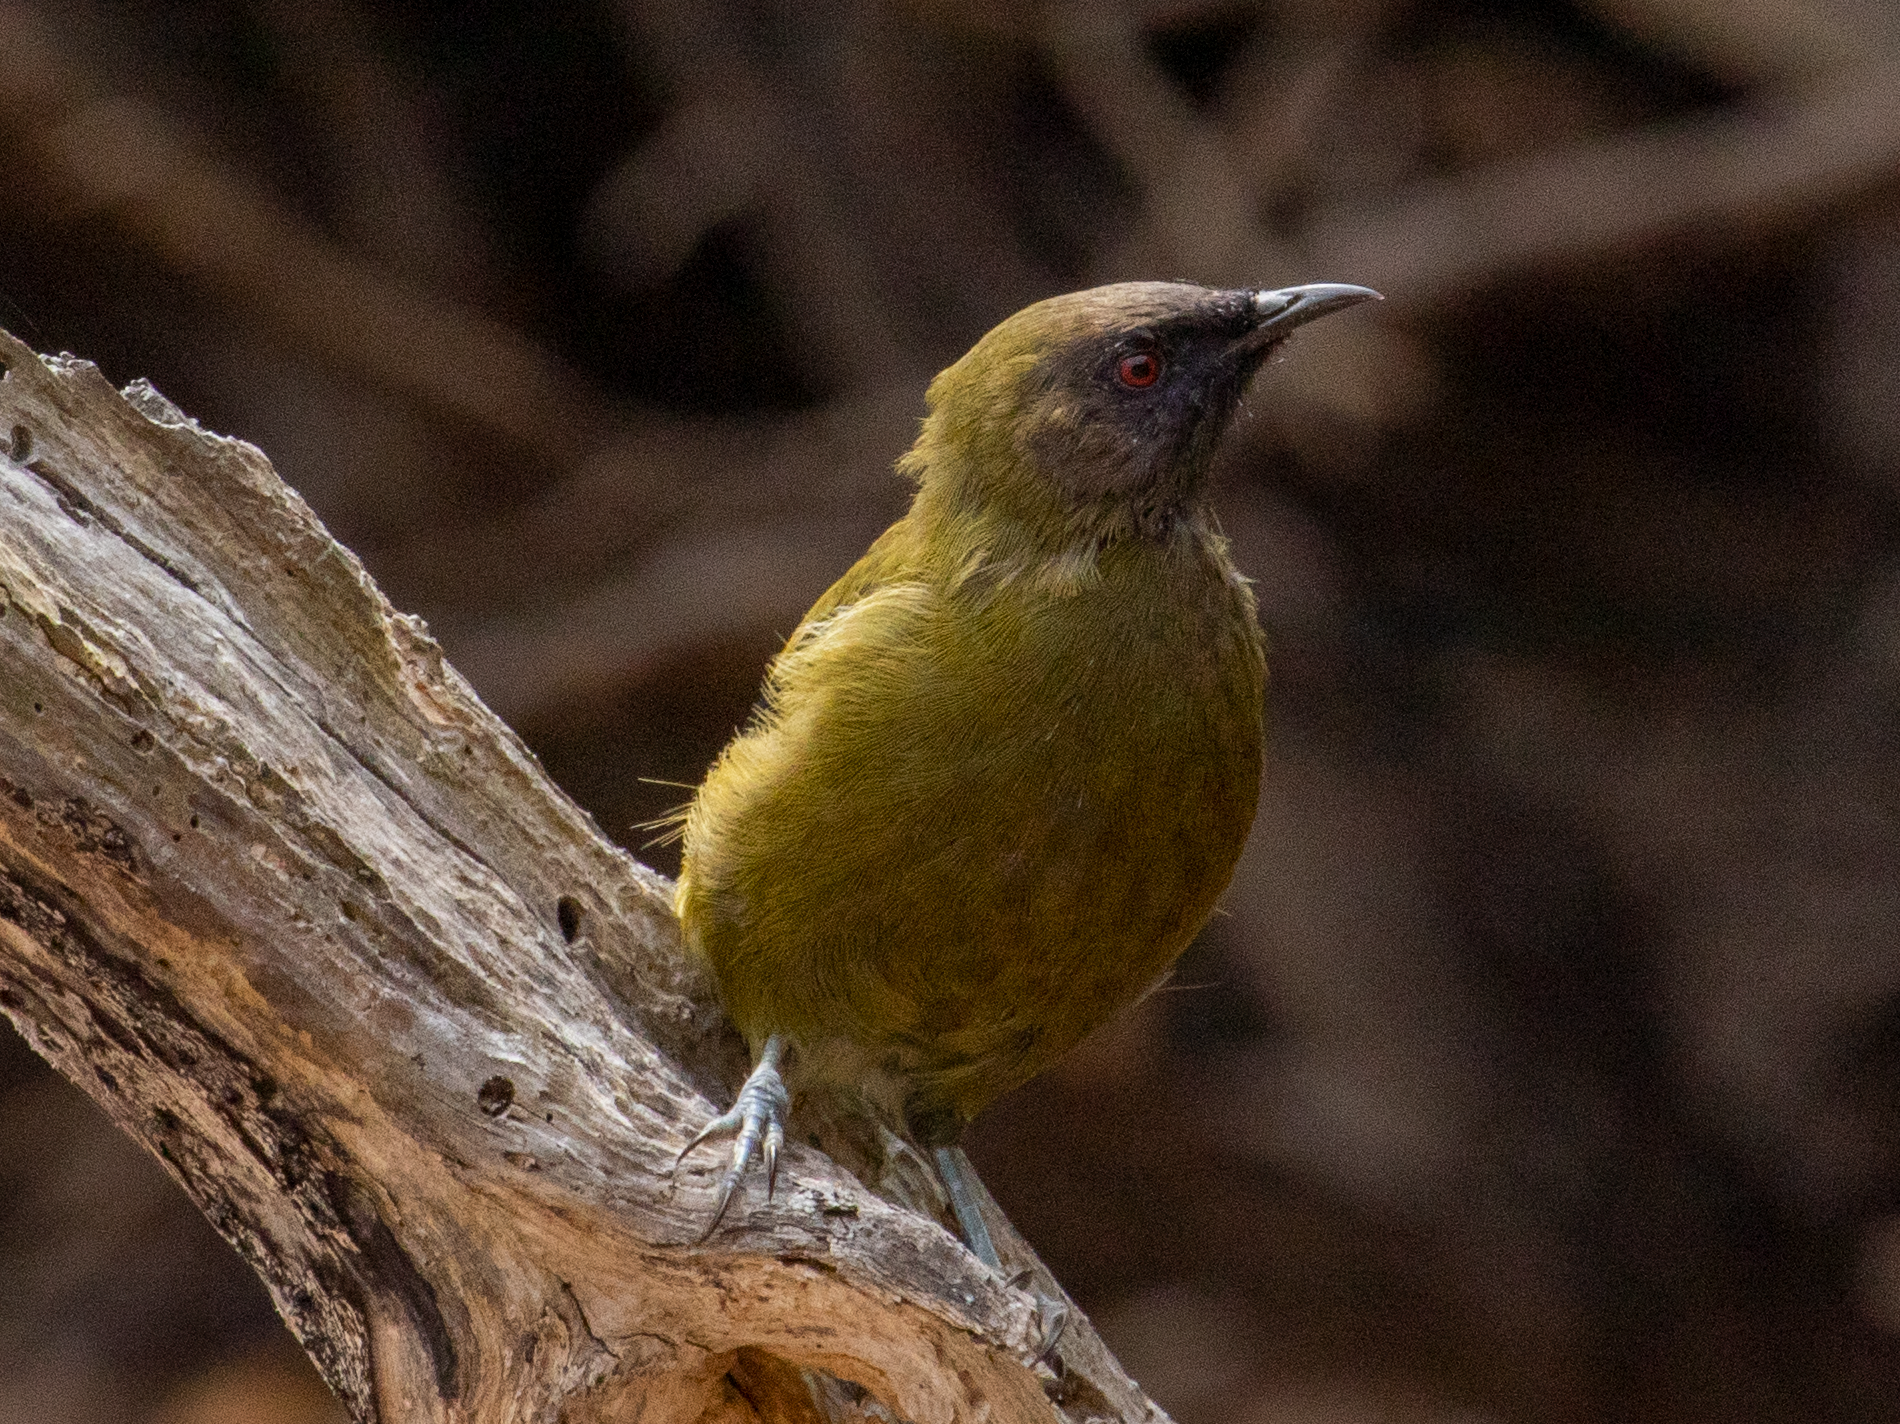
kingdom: Animalia
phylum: Chordata
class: Aves
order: Passeriformes
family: Meliphagidae
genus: Anthornis
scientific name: Anthornis melanura
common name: New zealand bellbird
